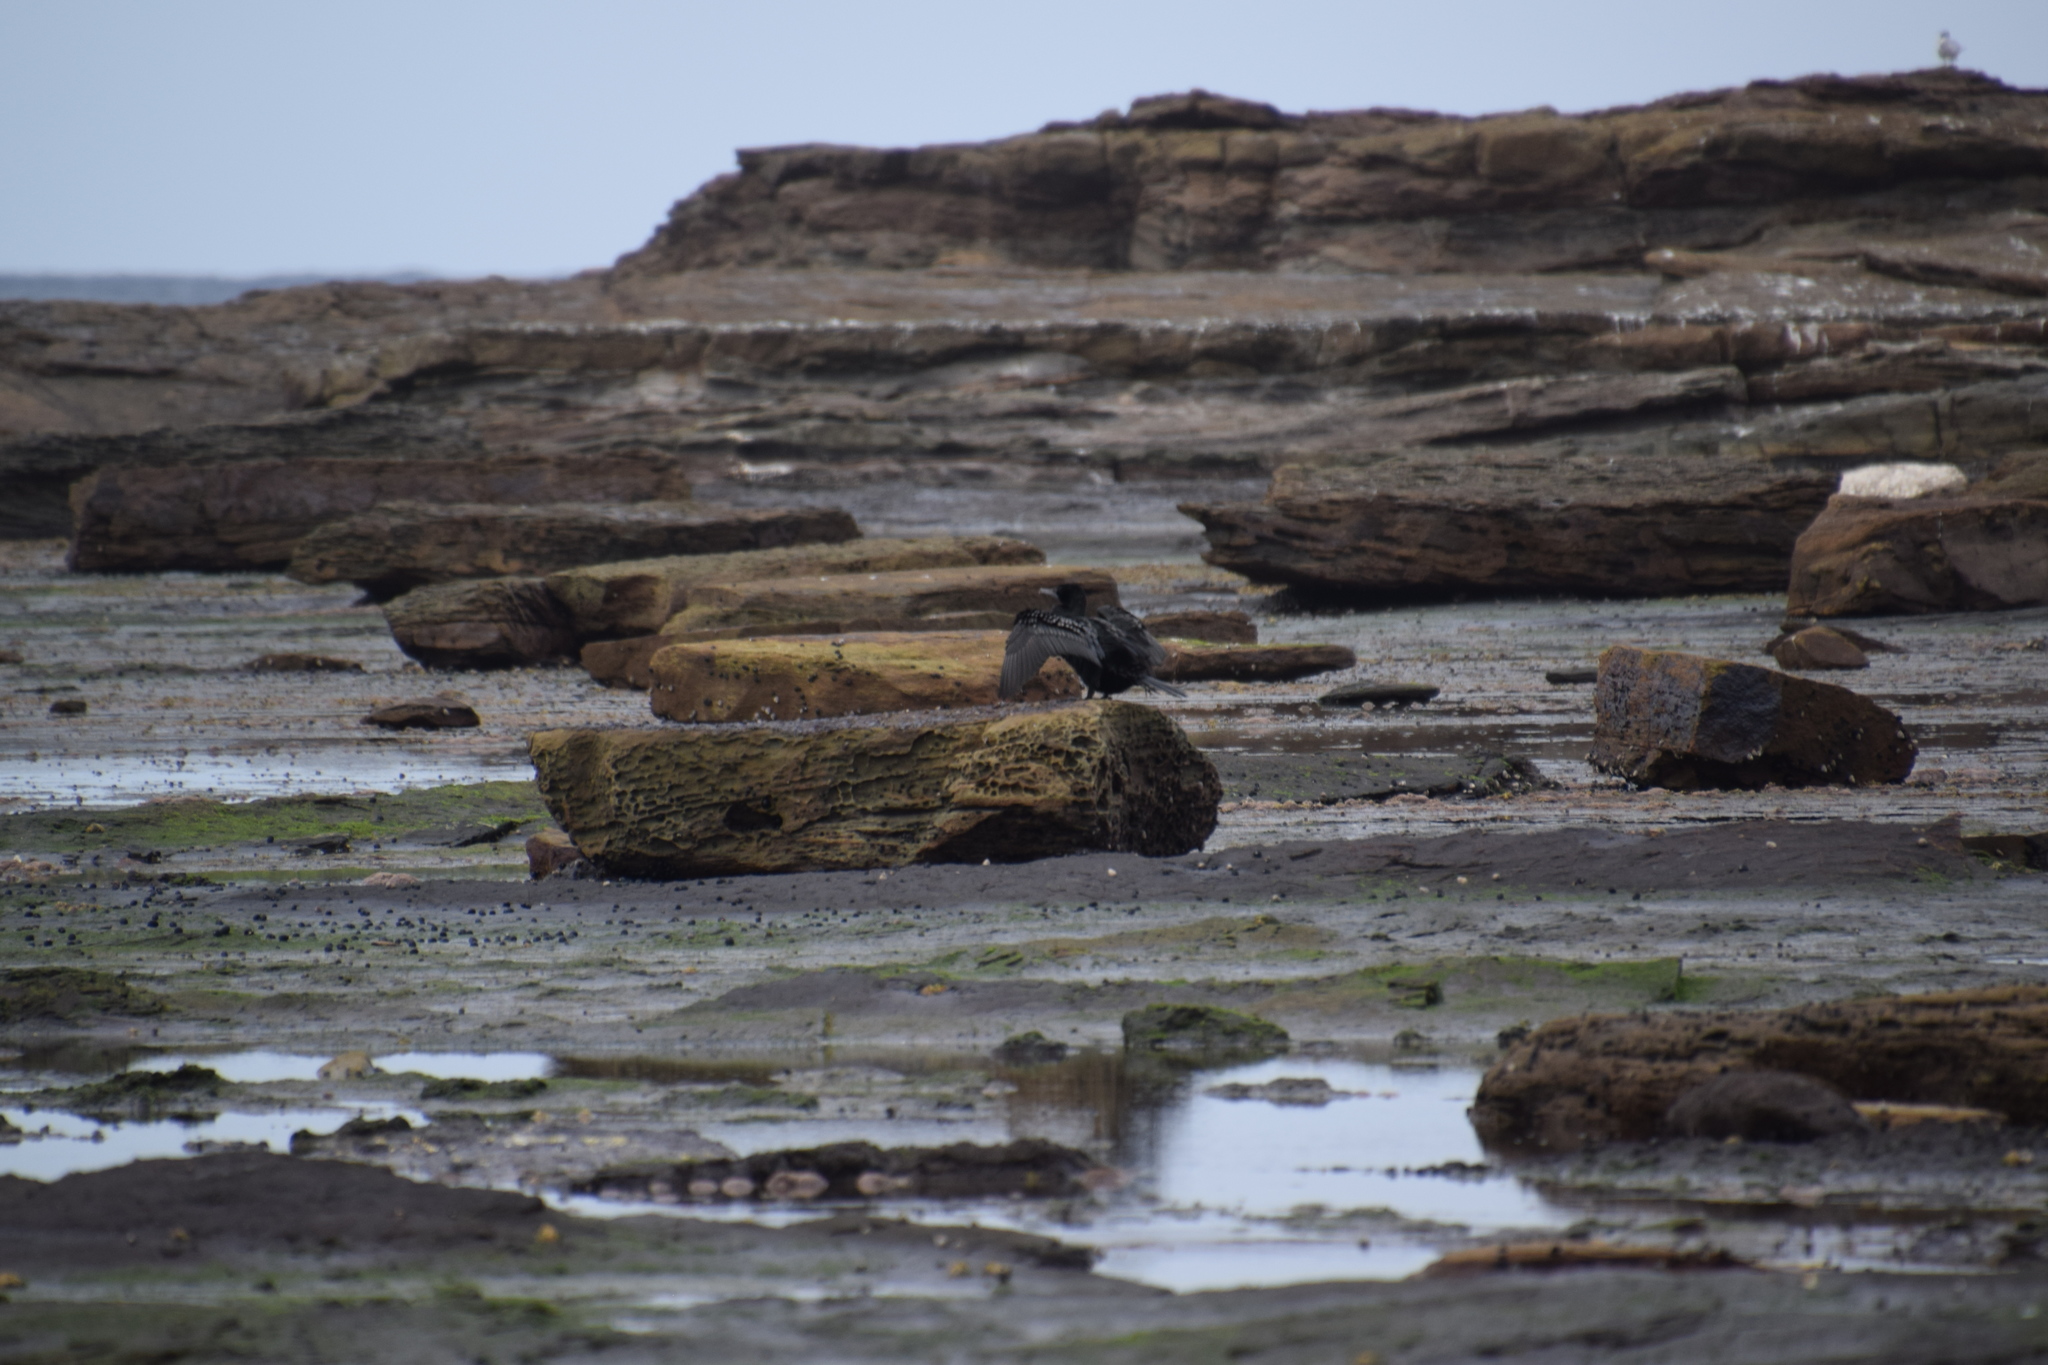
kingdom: Animalia
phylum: Chordata
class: Aves
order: Suliformes
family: Phalacrocoracidae
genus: Phalacrocorax
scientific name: Phalacrocorax sulcirostris
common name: Little black cormorant
